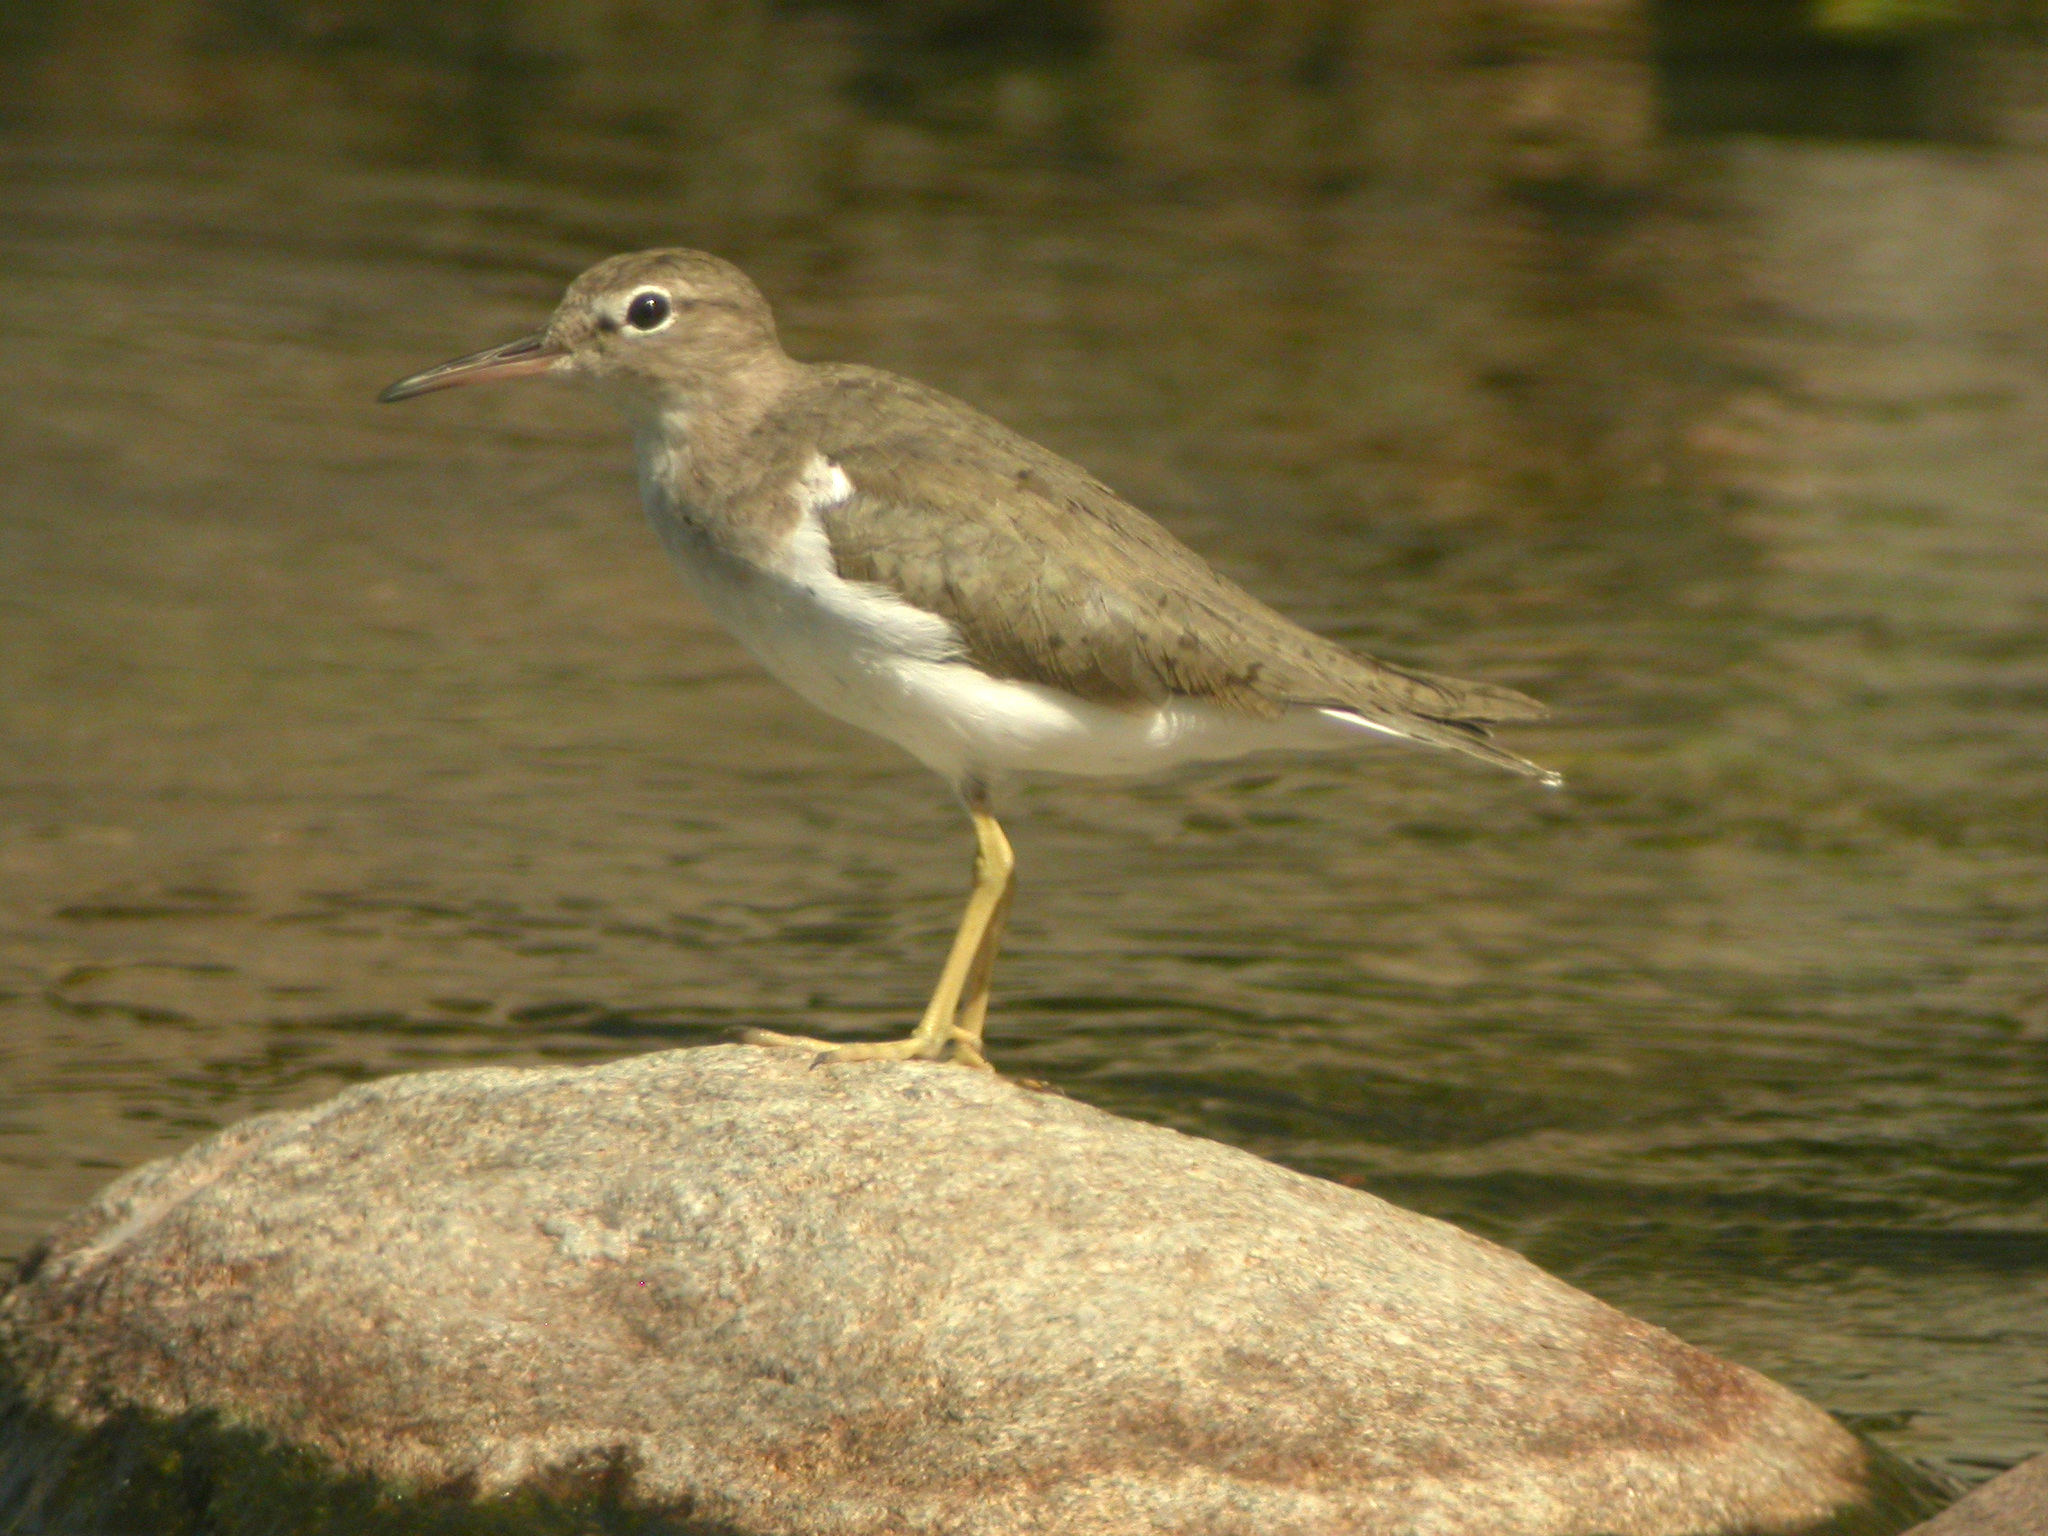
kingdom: Animalia
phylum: Chordata
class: Aves
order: Charadriiformes
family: Scolopacidae
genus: Actitis
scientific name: Actitis macularius
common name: Spotted sandpiper
